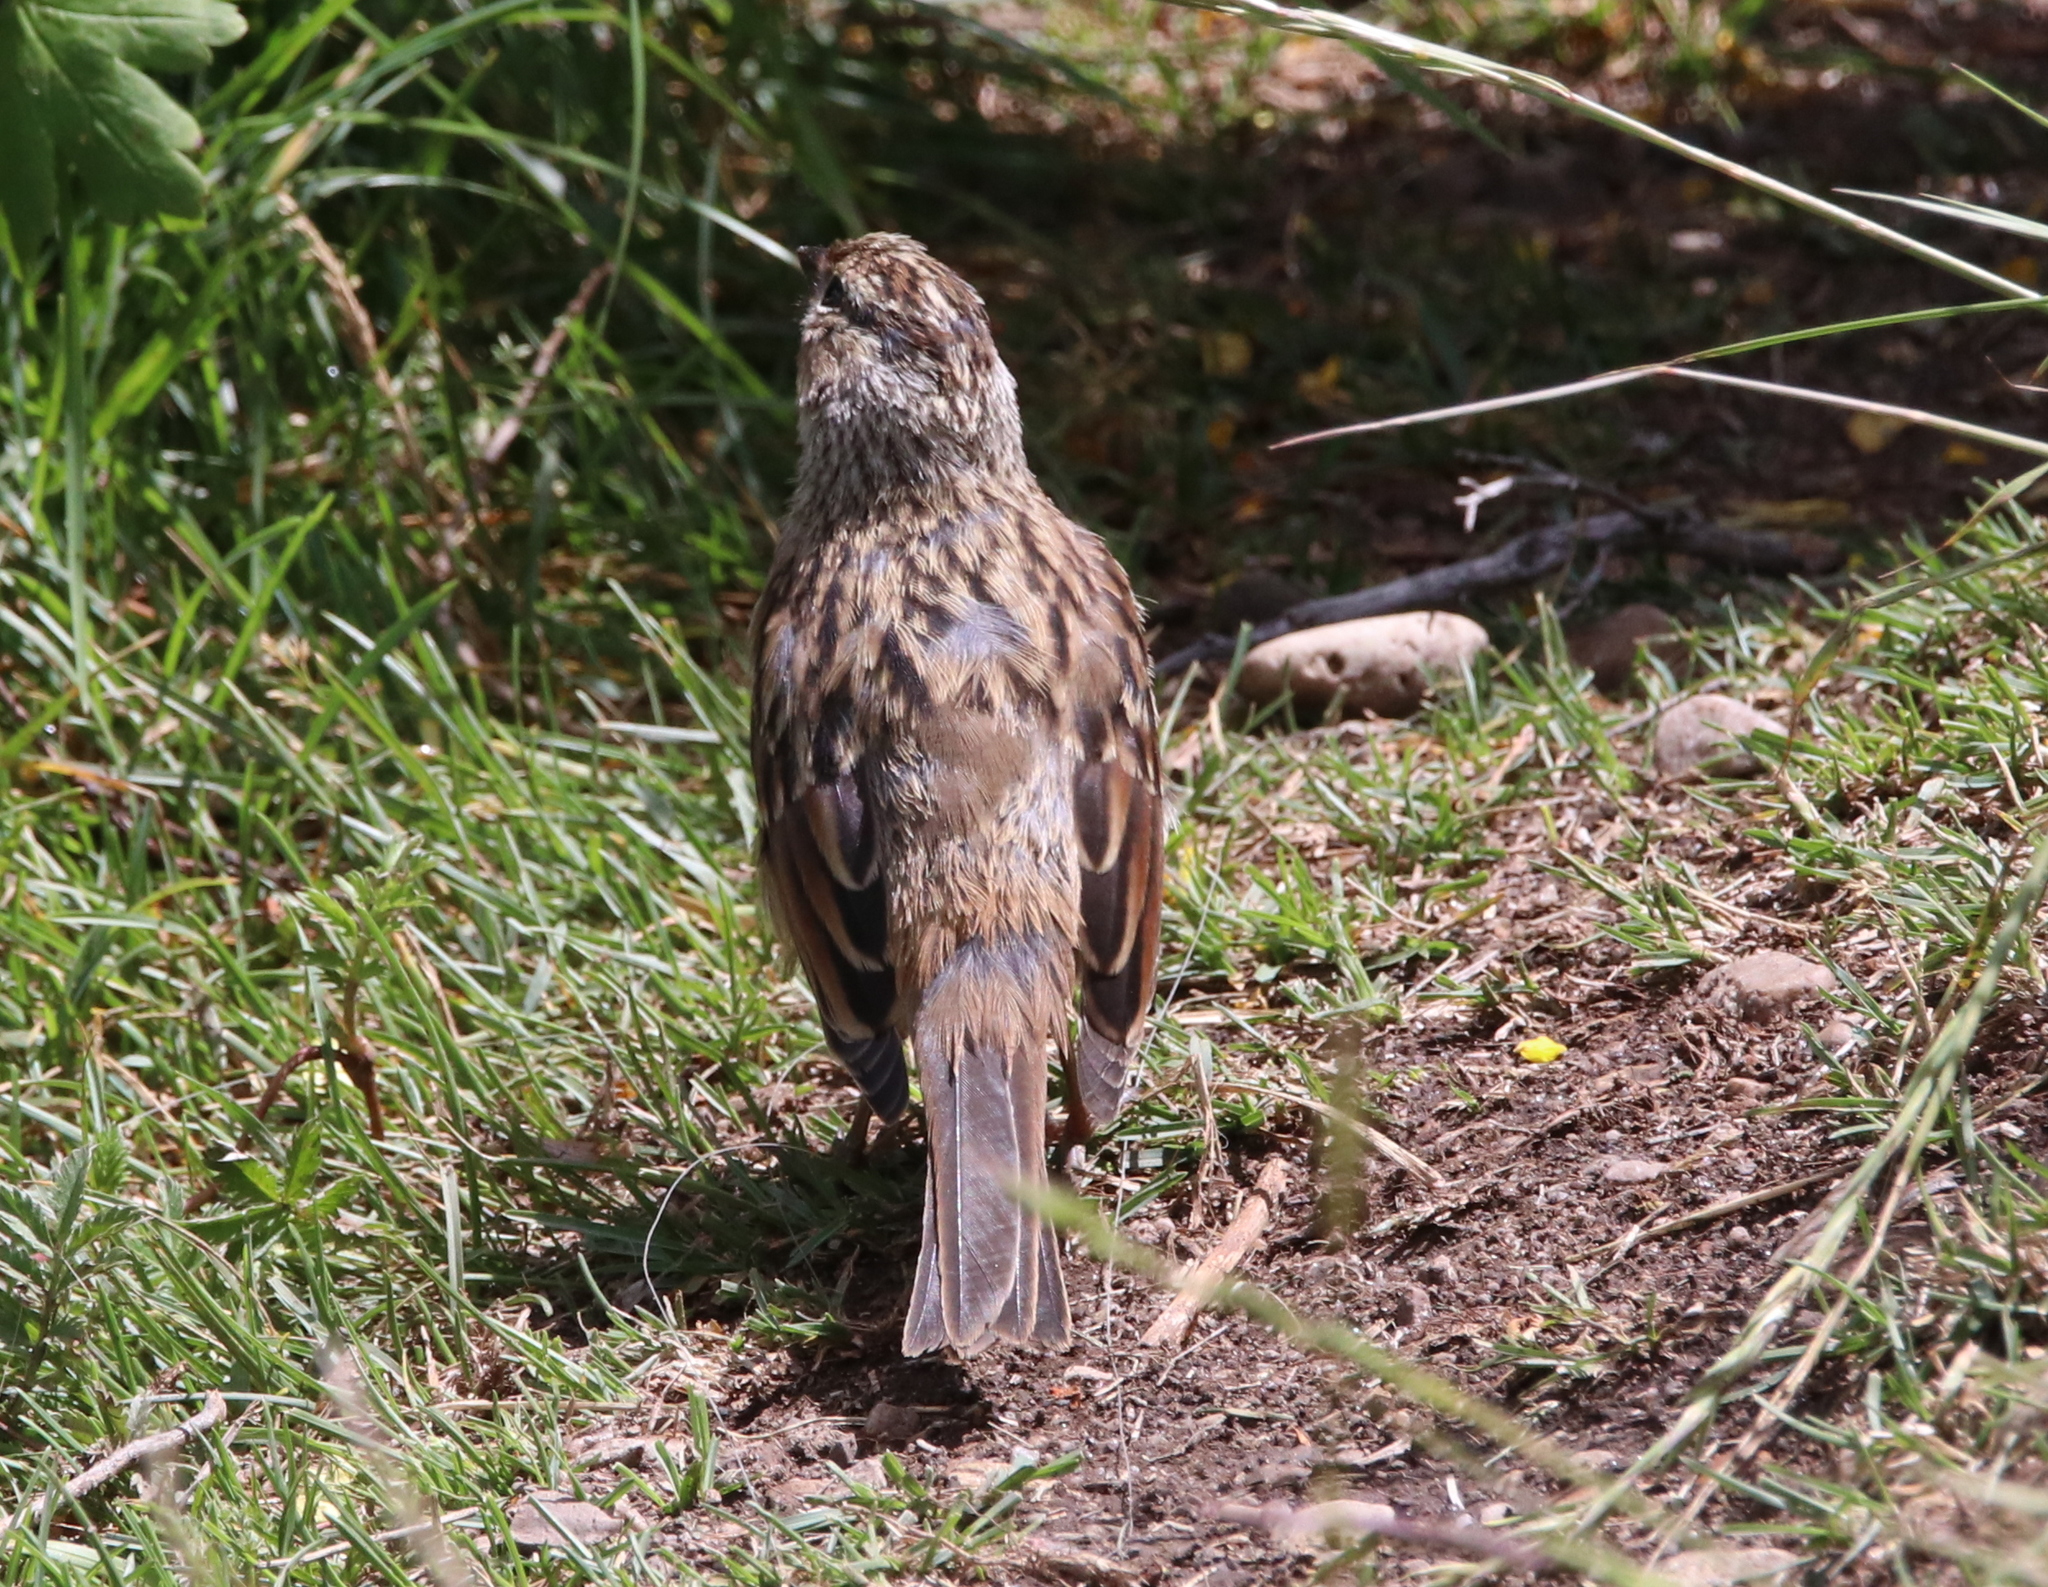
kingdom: Animalia
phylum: Chordata
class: Aves
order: Passeriformes
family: Passerellidae
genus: Zonotrichia
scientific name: Zonotrichia leucophrys
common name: White-crowned sparrow
